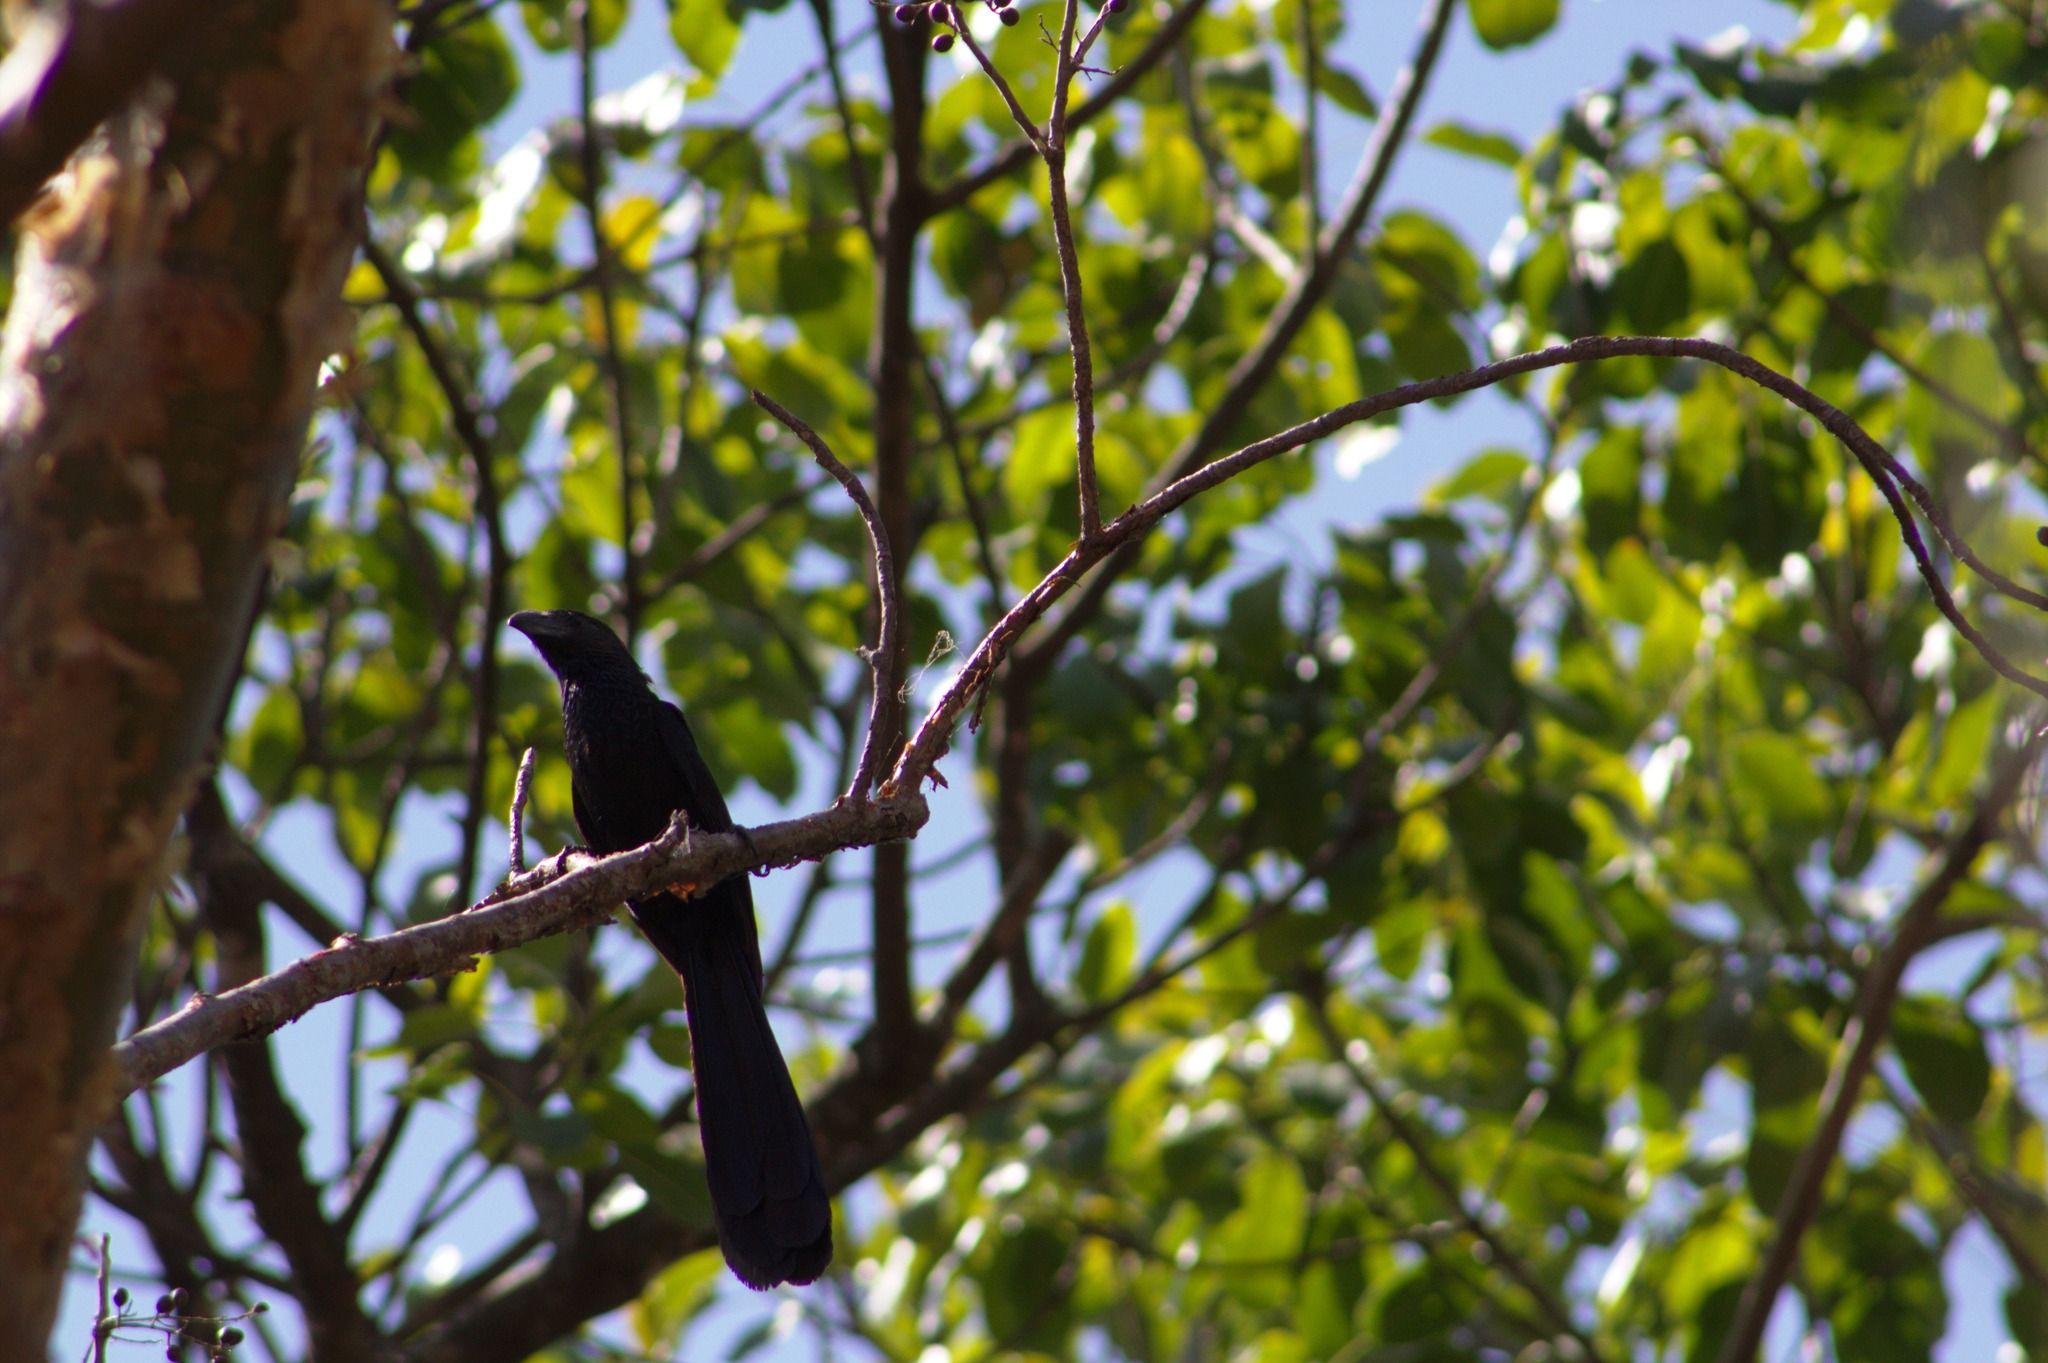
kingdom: Animalia
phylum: Chordata
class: Aves
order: Cuculiformes
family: Cuculidae
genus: Crotophaga
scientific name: Crotophaga sulcirostris
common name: Groove-billed ani
